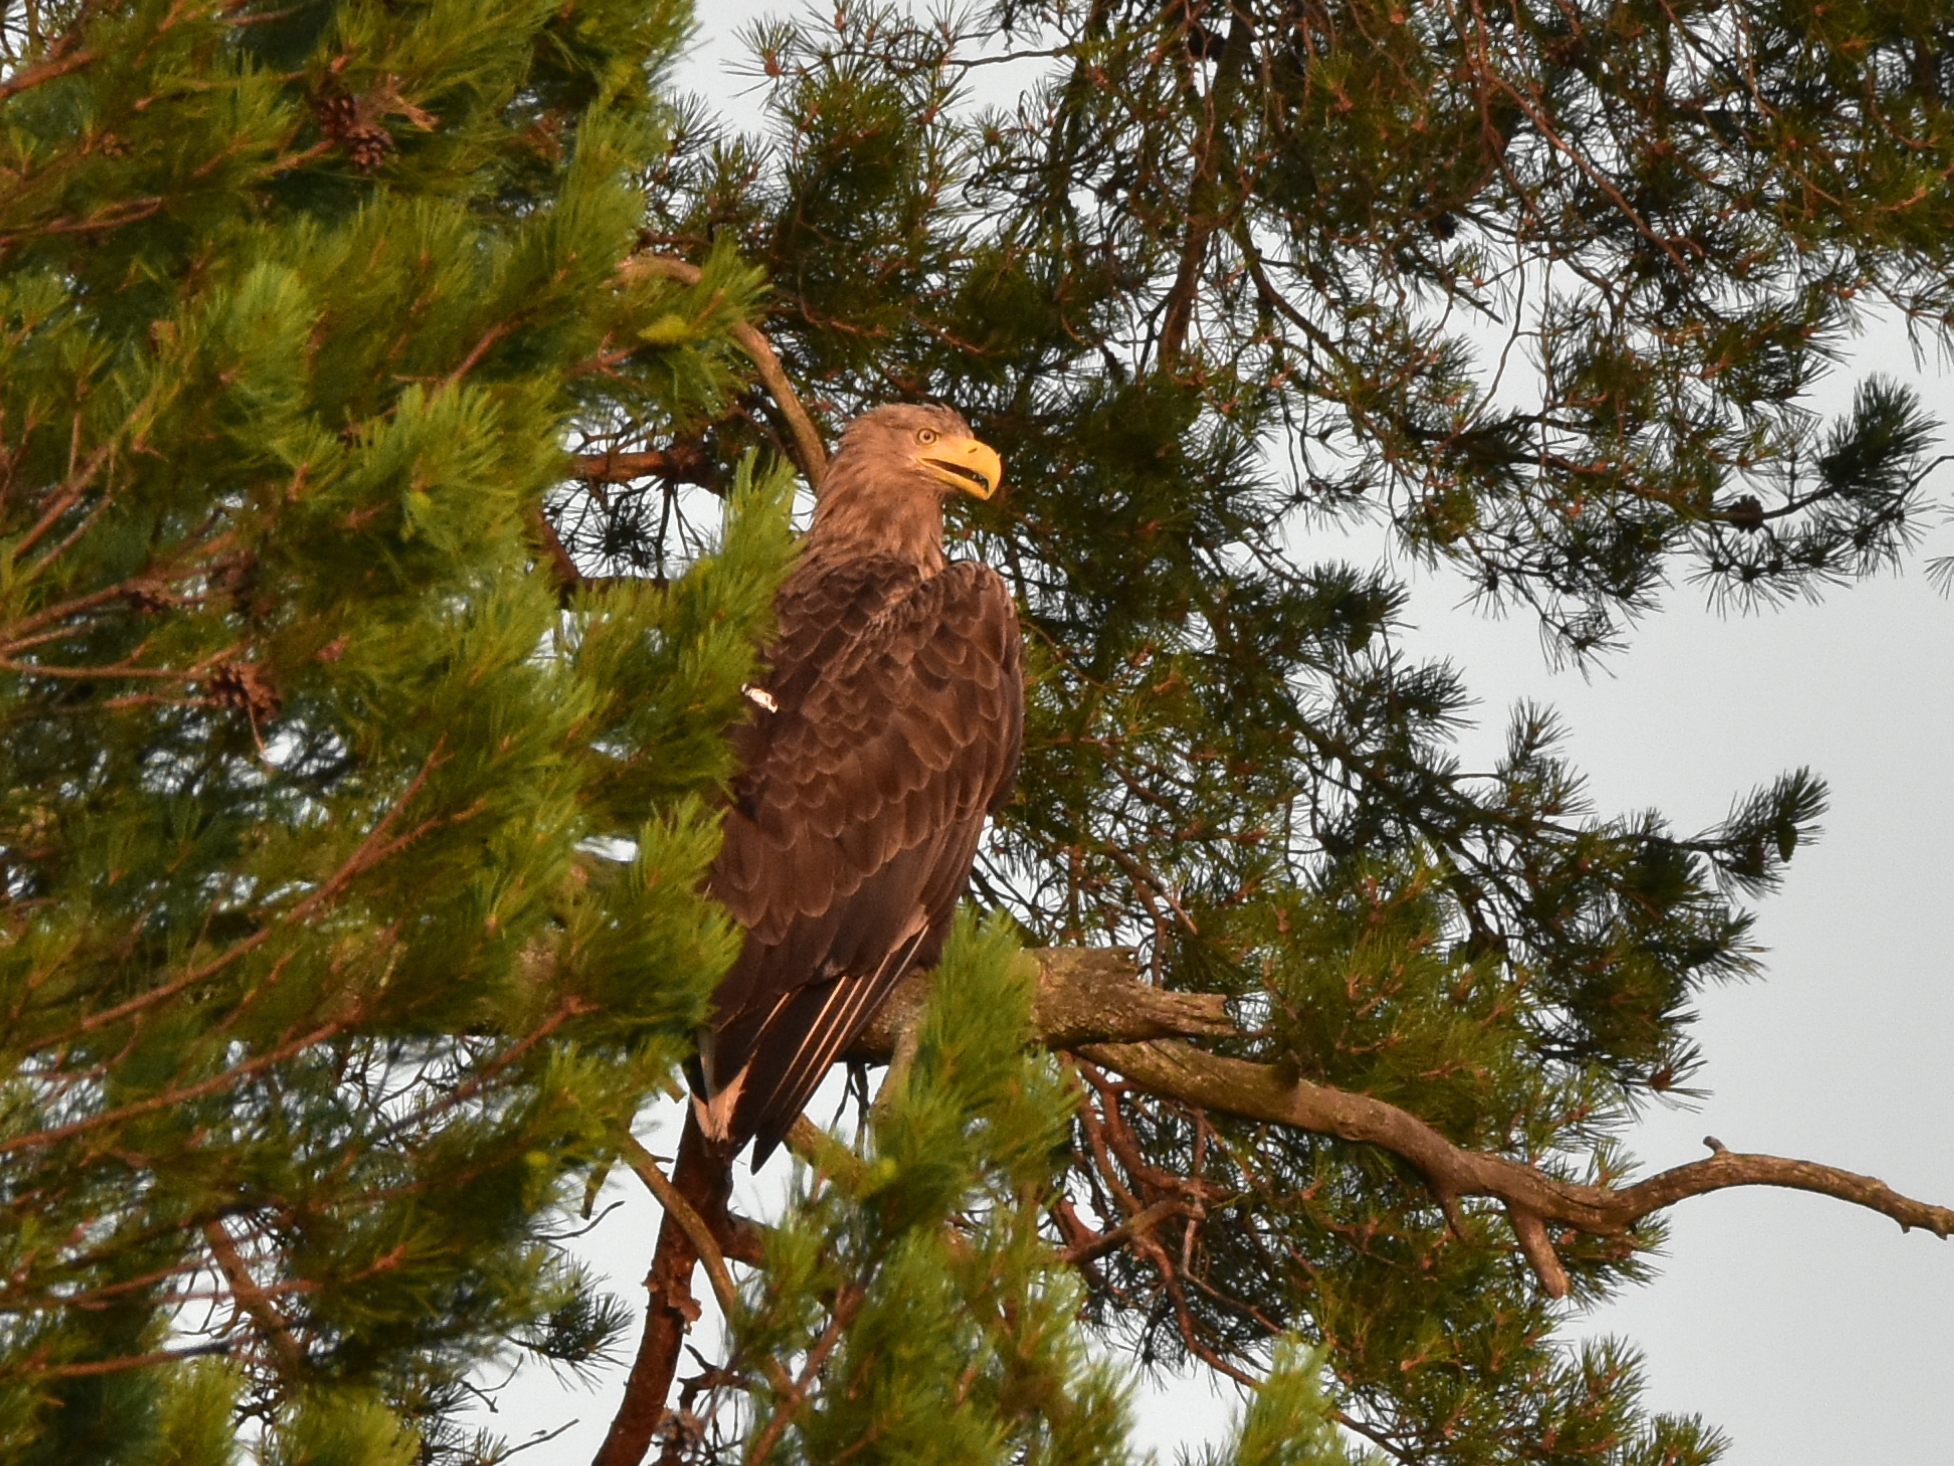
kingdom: Animalia
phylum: Chordata
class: Aves
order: Accipitriformes
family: Accipitridae
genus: Haliaeetus
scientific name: Haliaeetus albicilla
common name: White-tailed eagle
